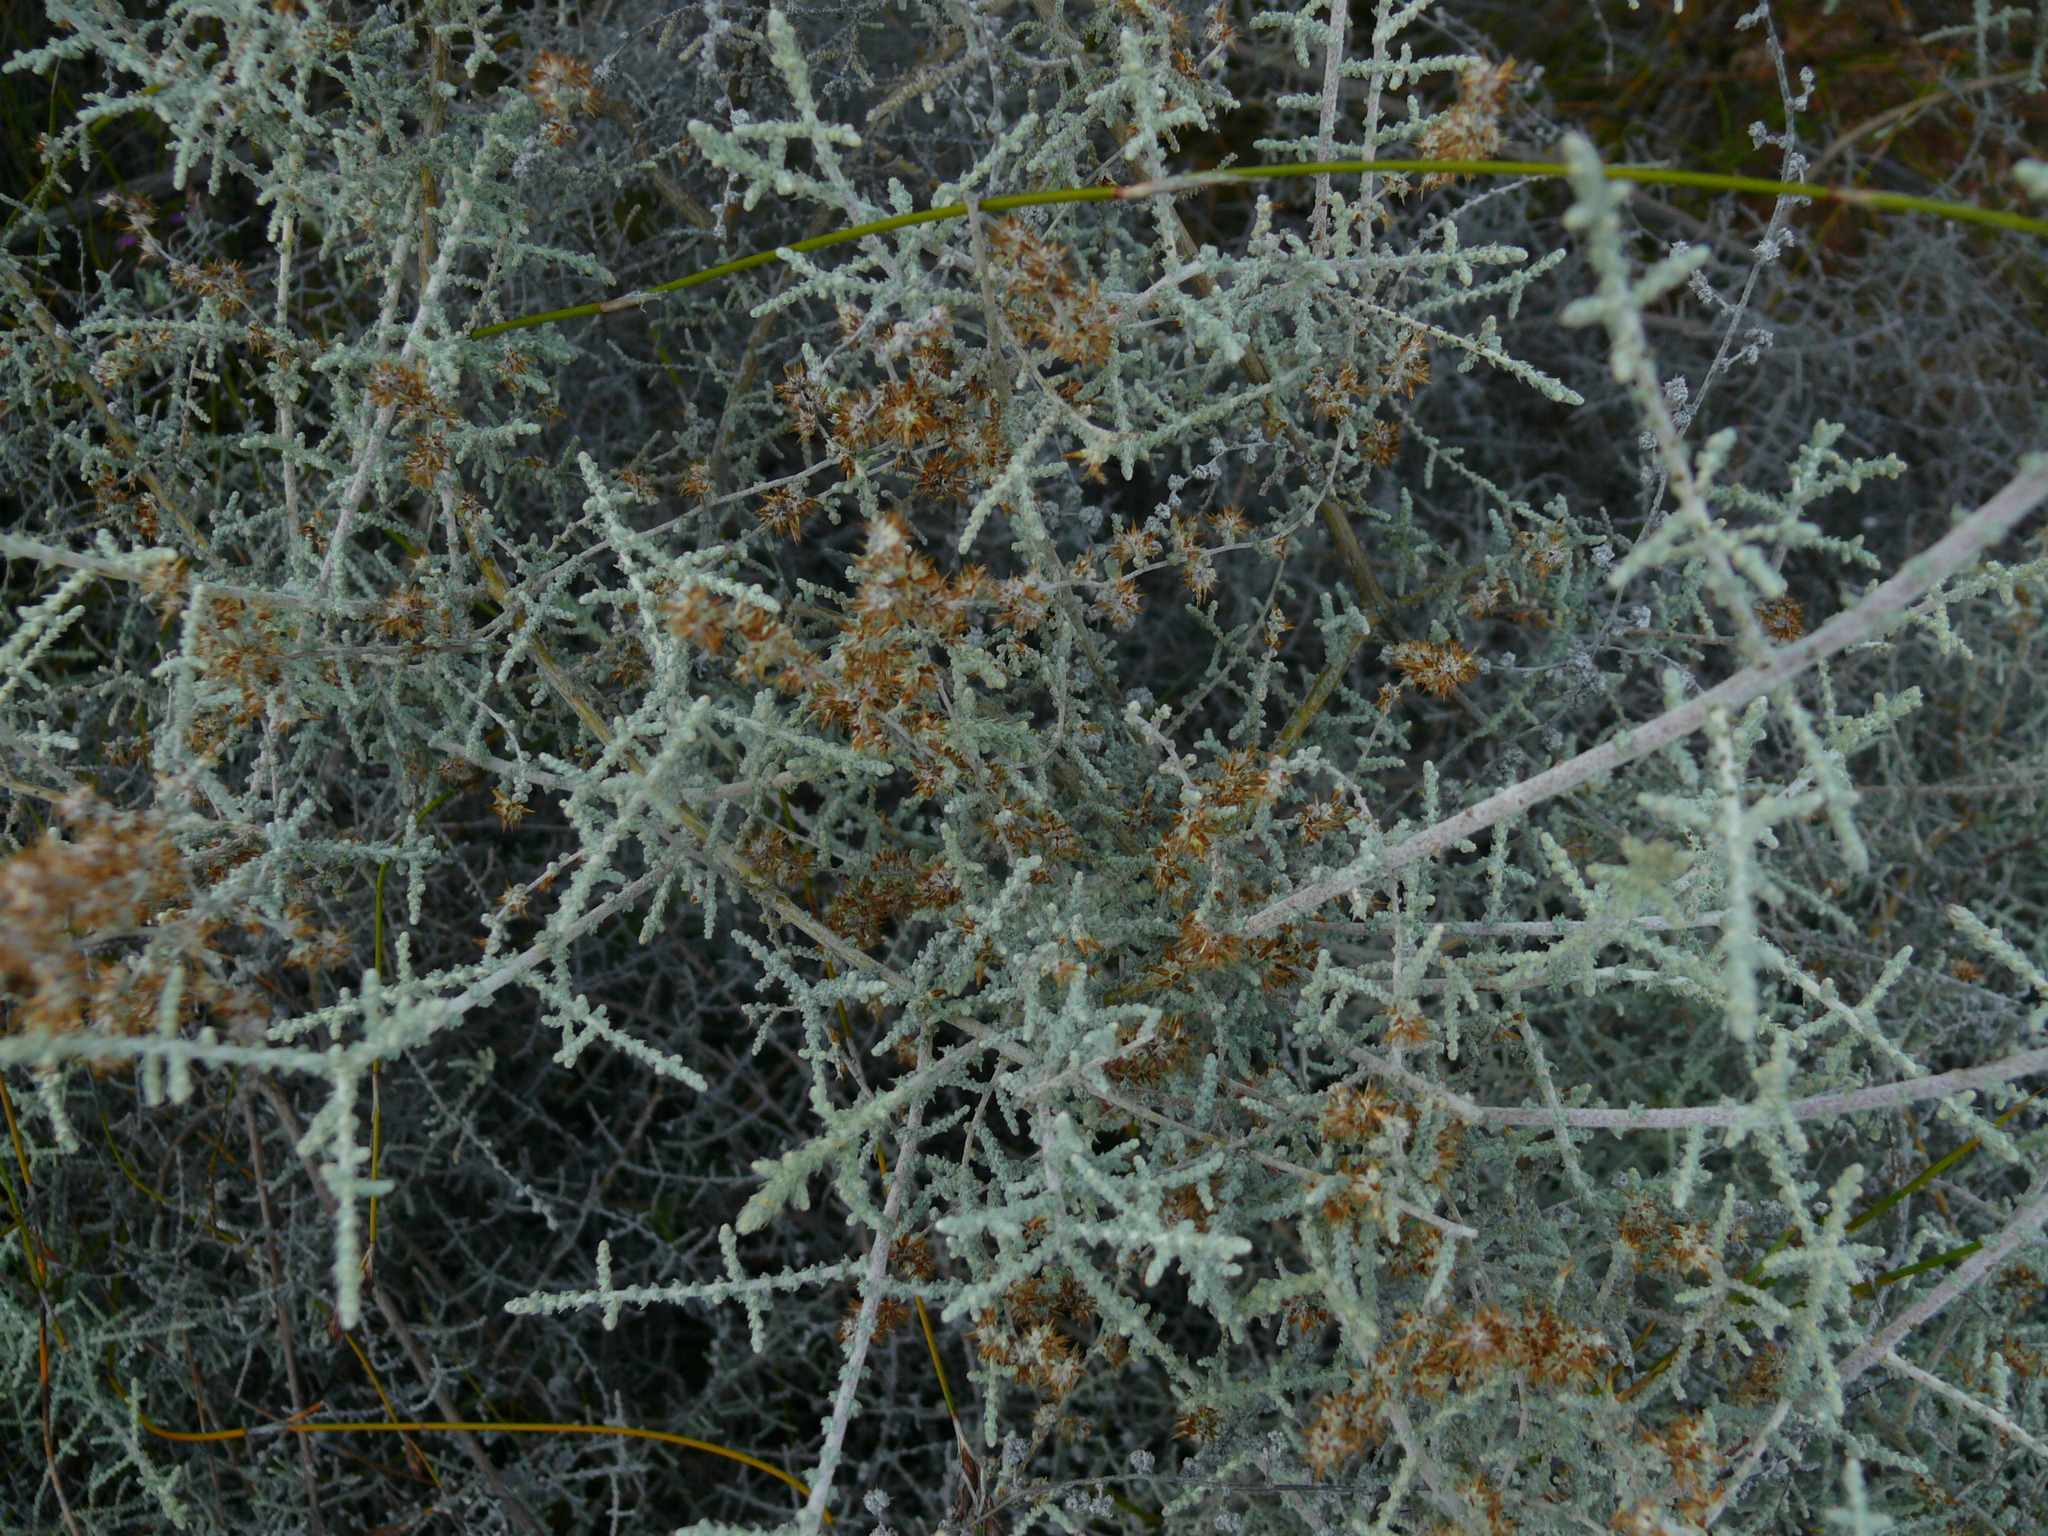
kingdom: Plantae
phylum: Tracheophyta
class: Magnoliopsida
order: Asterales
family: Asteraceae
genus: Seriphium
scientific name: Seriphium plumosum
